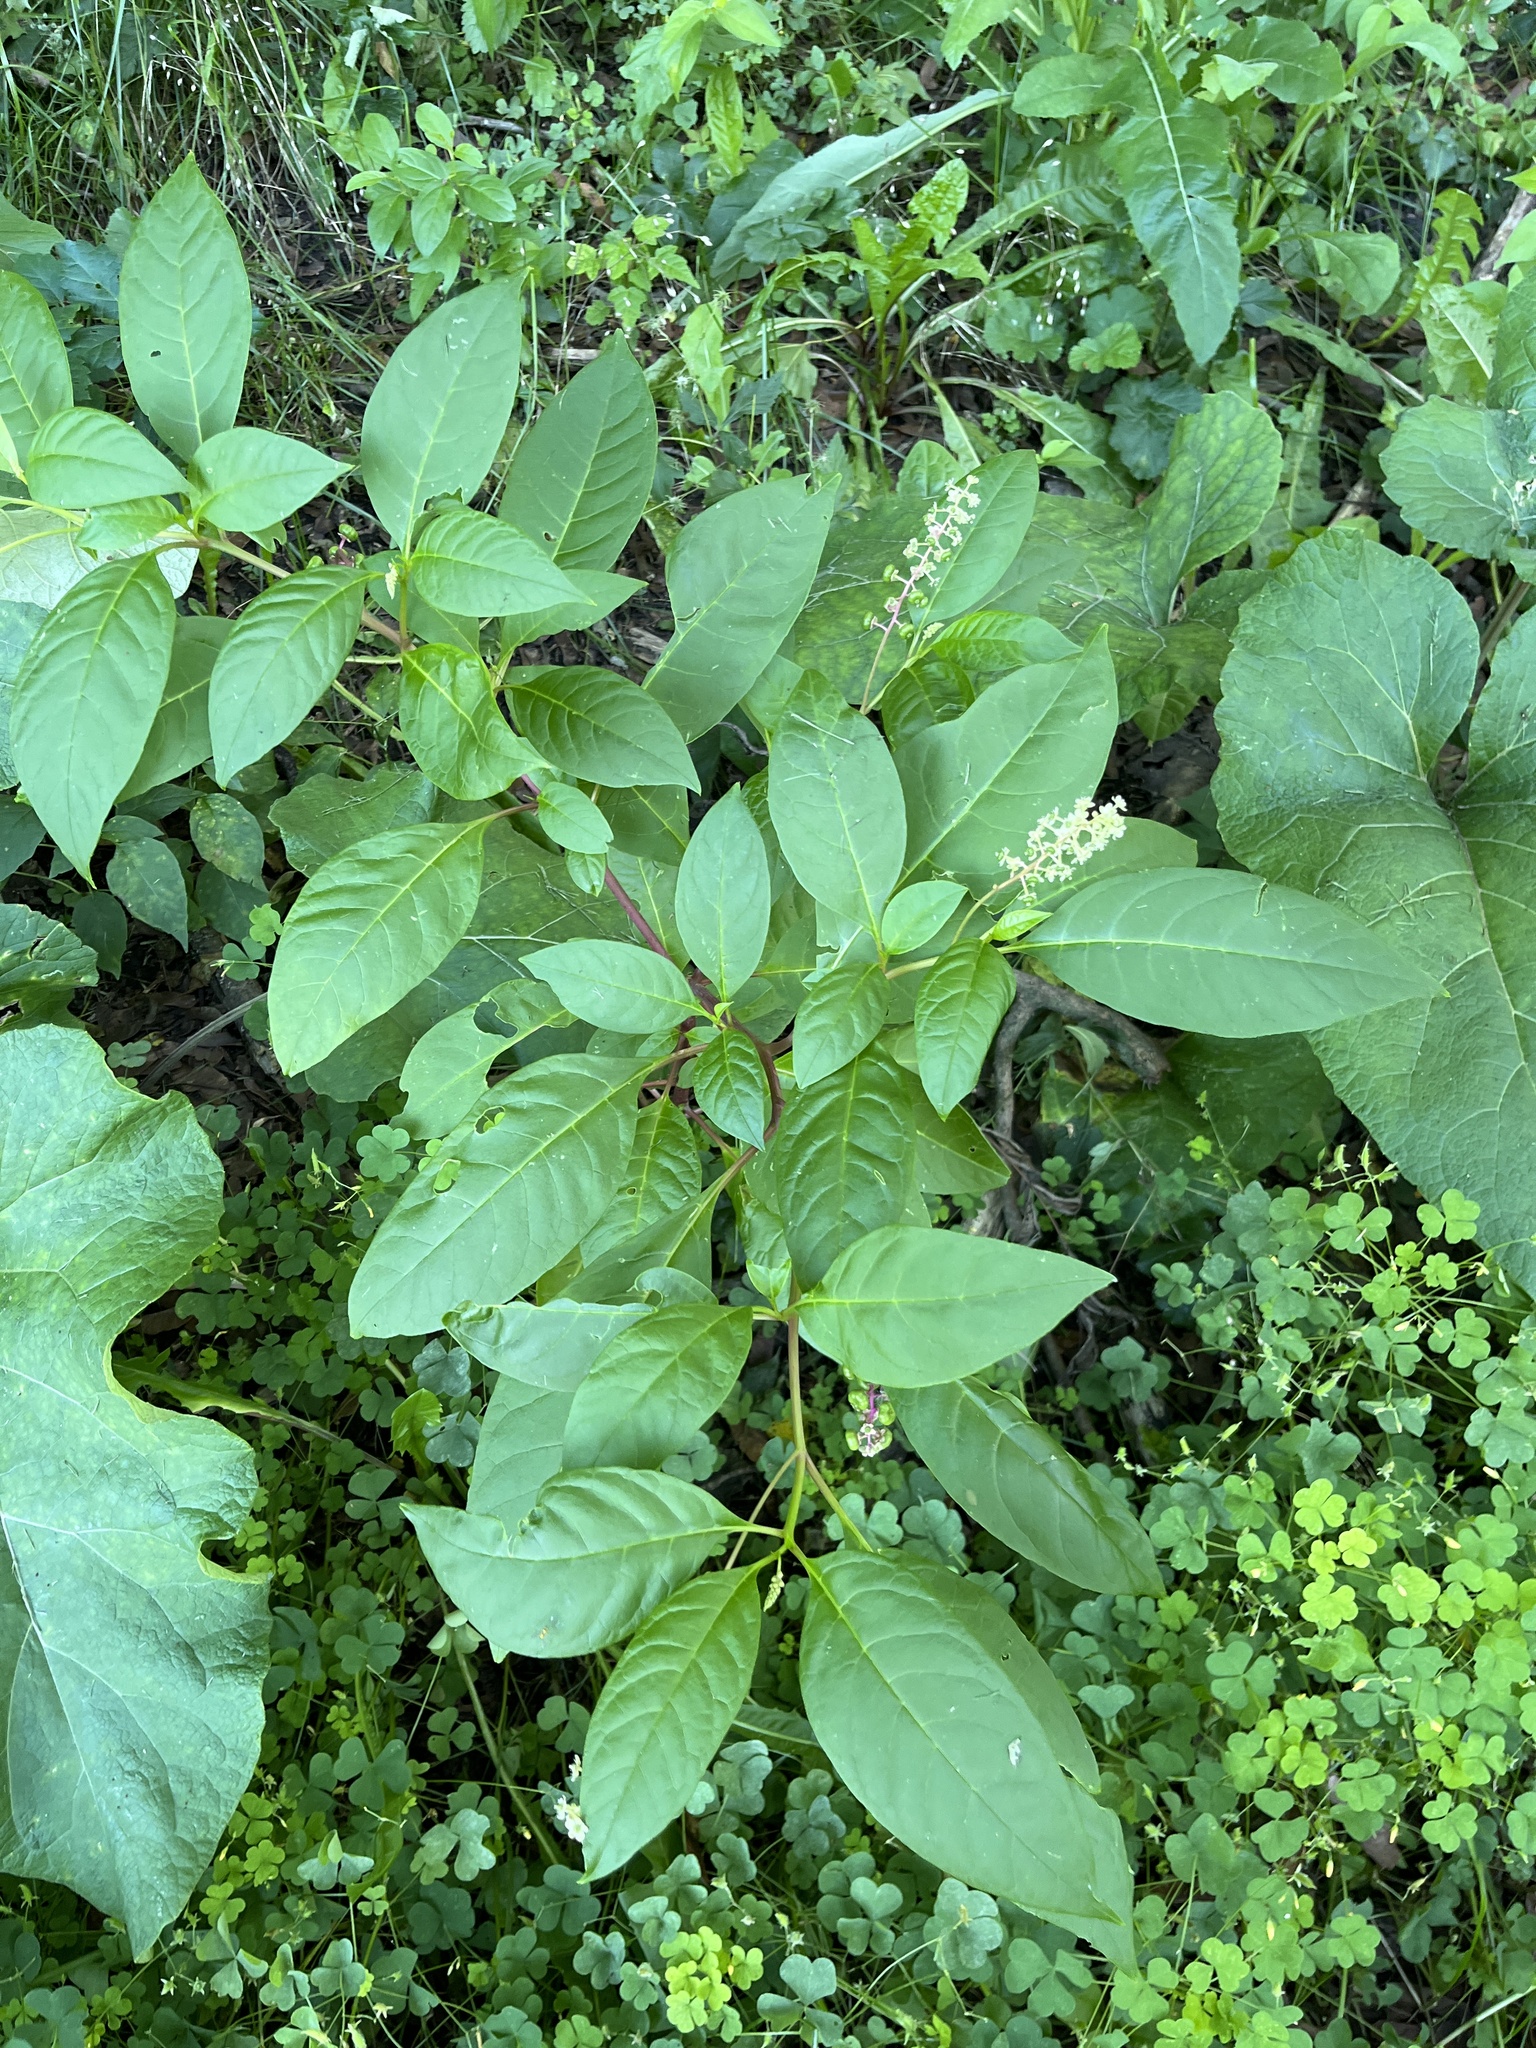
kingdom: Plantae
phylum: Tracheophyta
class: Magnoliopsida
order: Caryophyllales
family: Phytolaccaceae
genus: Phytolacca
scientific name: Phytolacca americana
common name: American pokeweed
